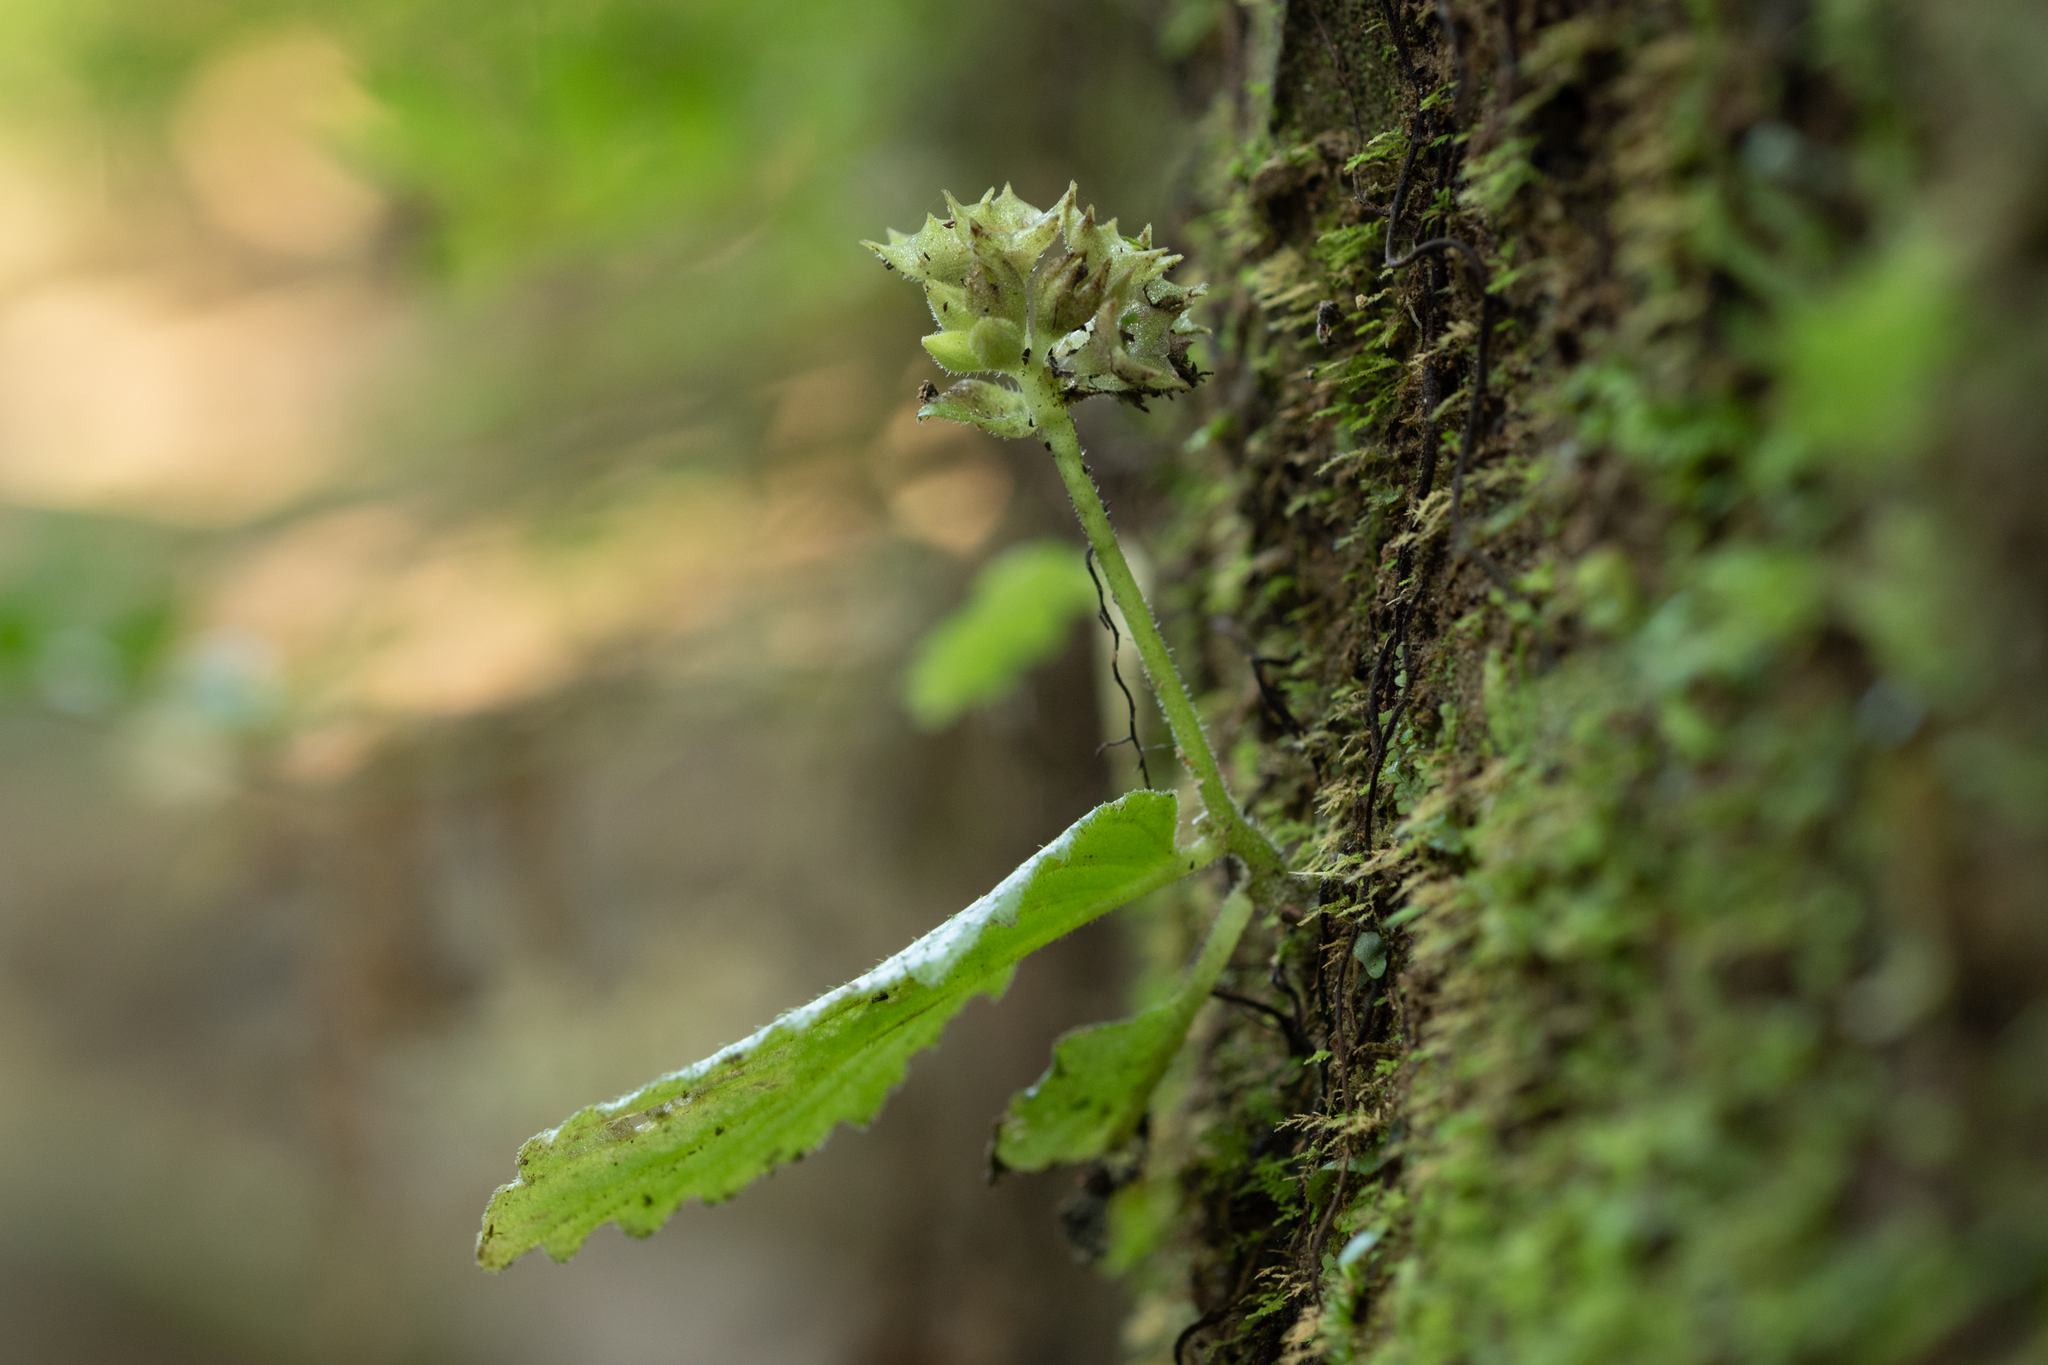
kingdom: Plantae
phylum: Tracheophyta
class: Magnoliopsida
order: Lamiales
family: Gesneriaceae
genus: Epithema
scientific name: Epithema ceylanicum
